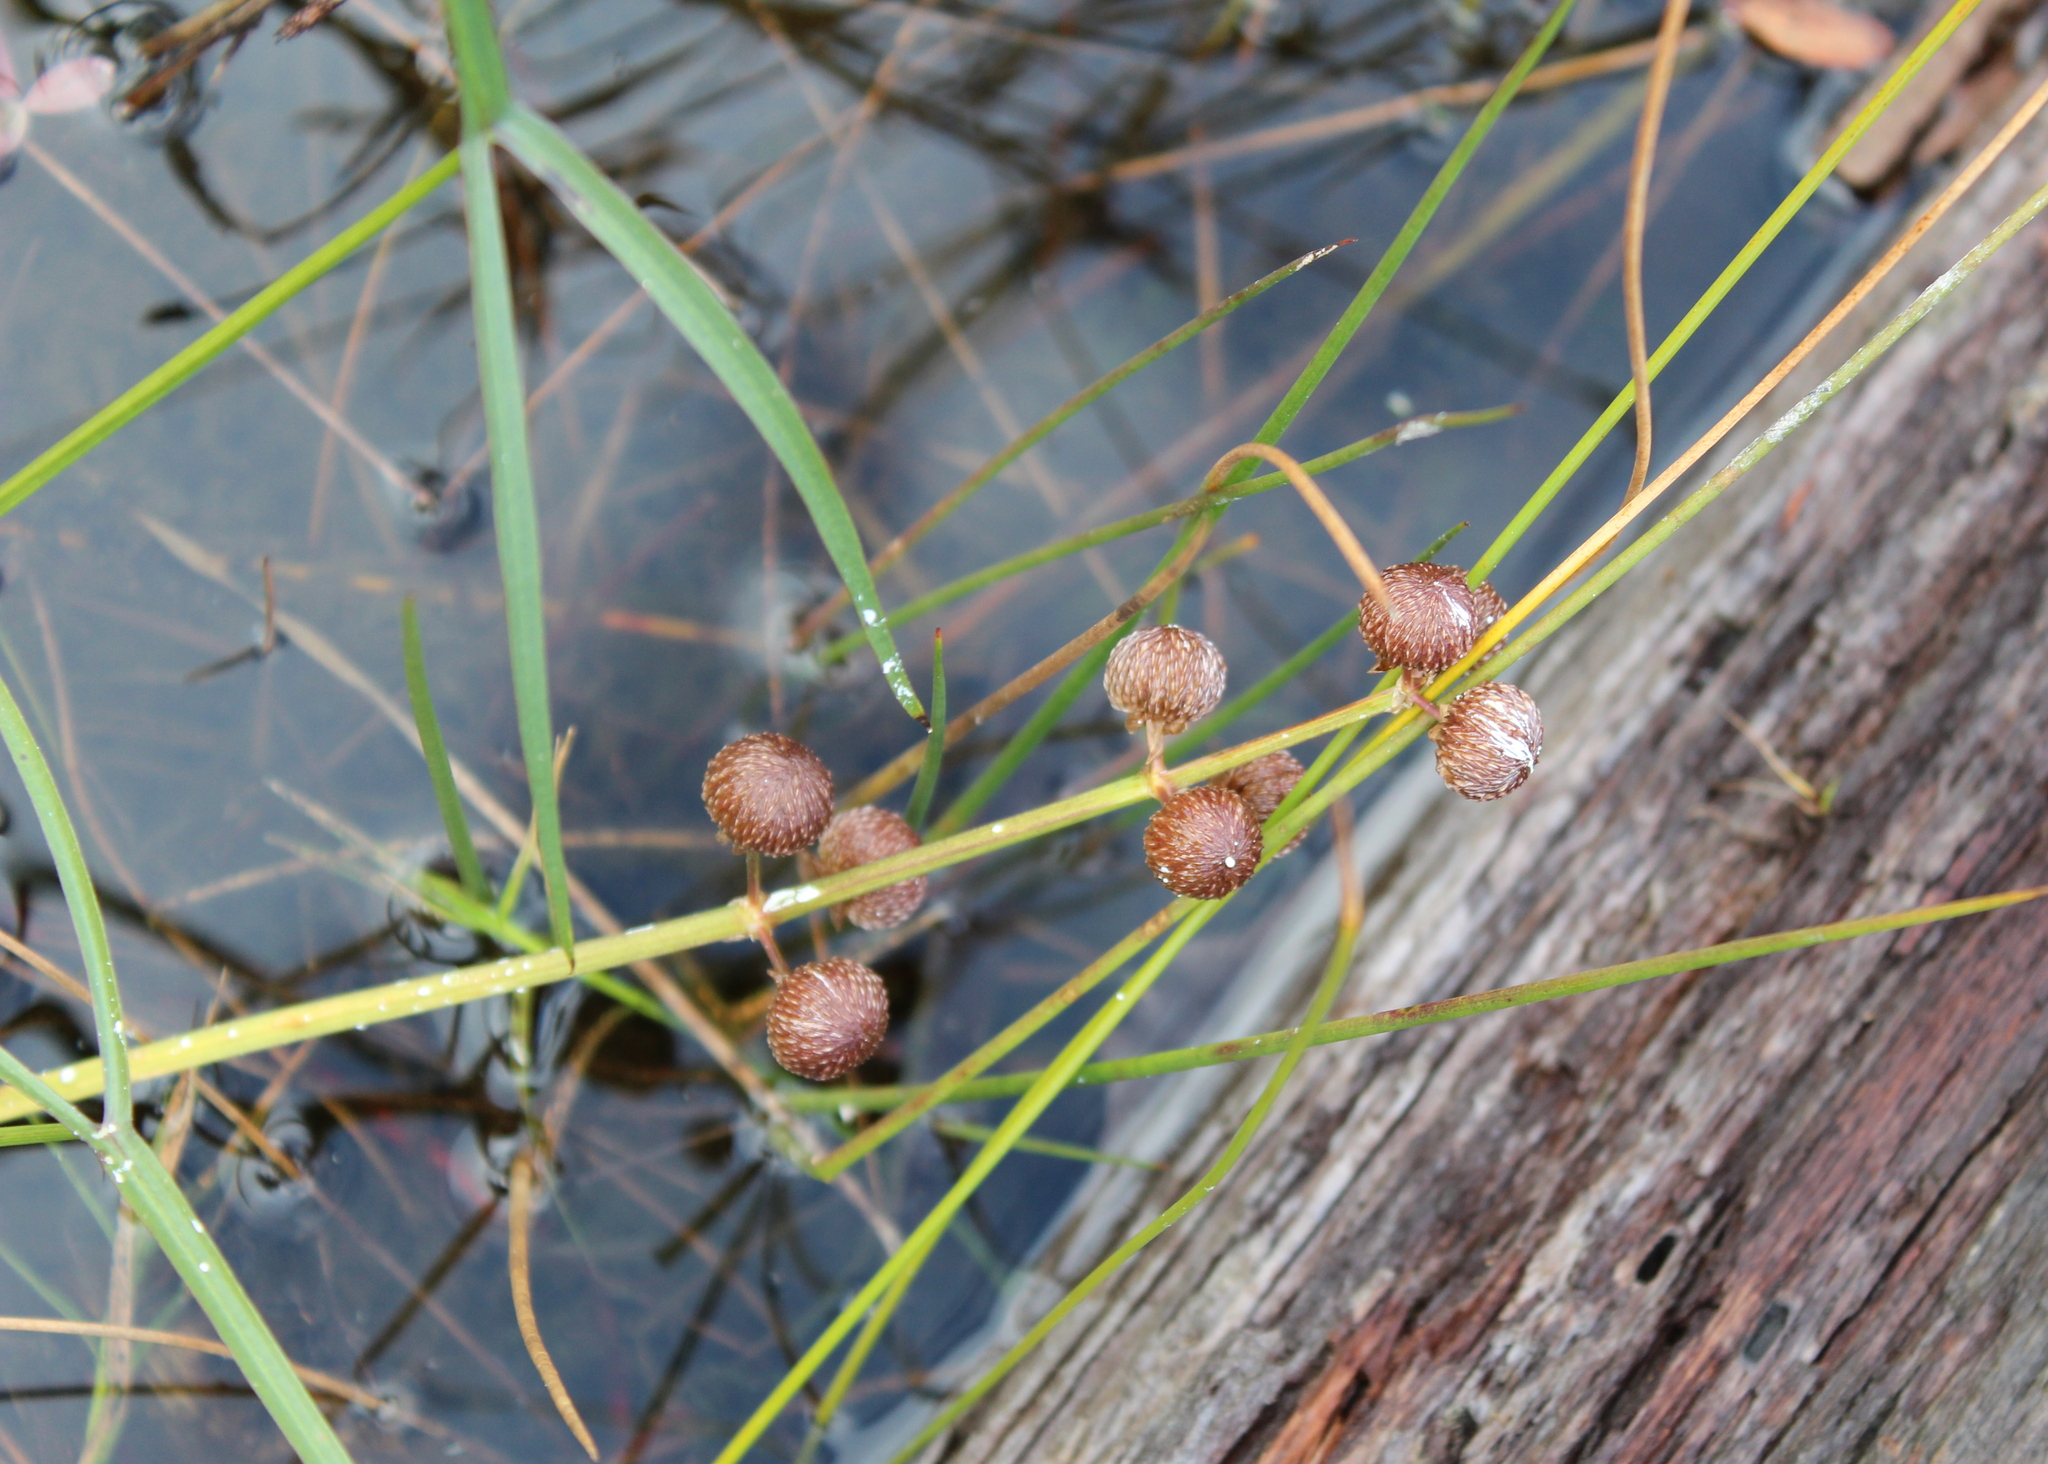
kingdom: Plantae
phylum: Tracheophyta
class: Liliopsida
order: Alismatales
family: Alismataceae
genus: Sagittaria
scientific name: Sagittaria latifolia
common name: Duck-potato
